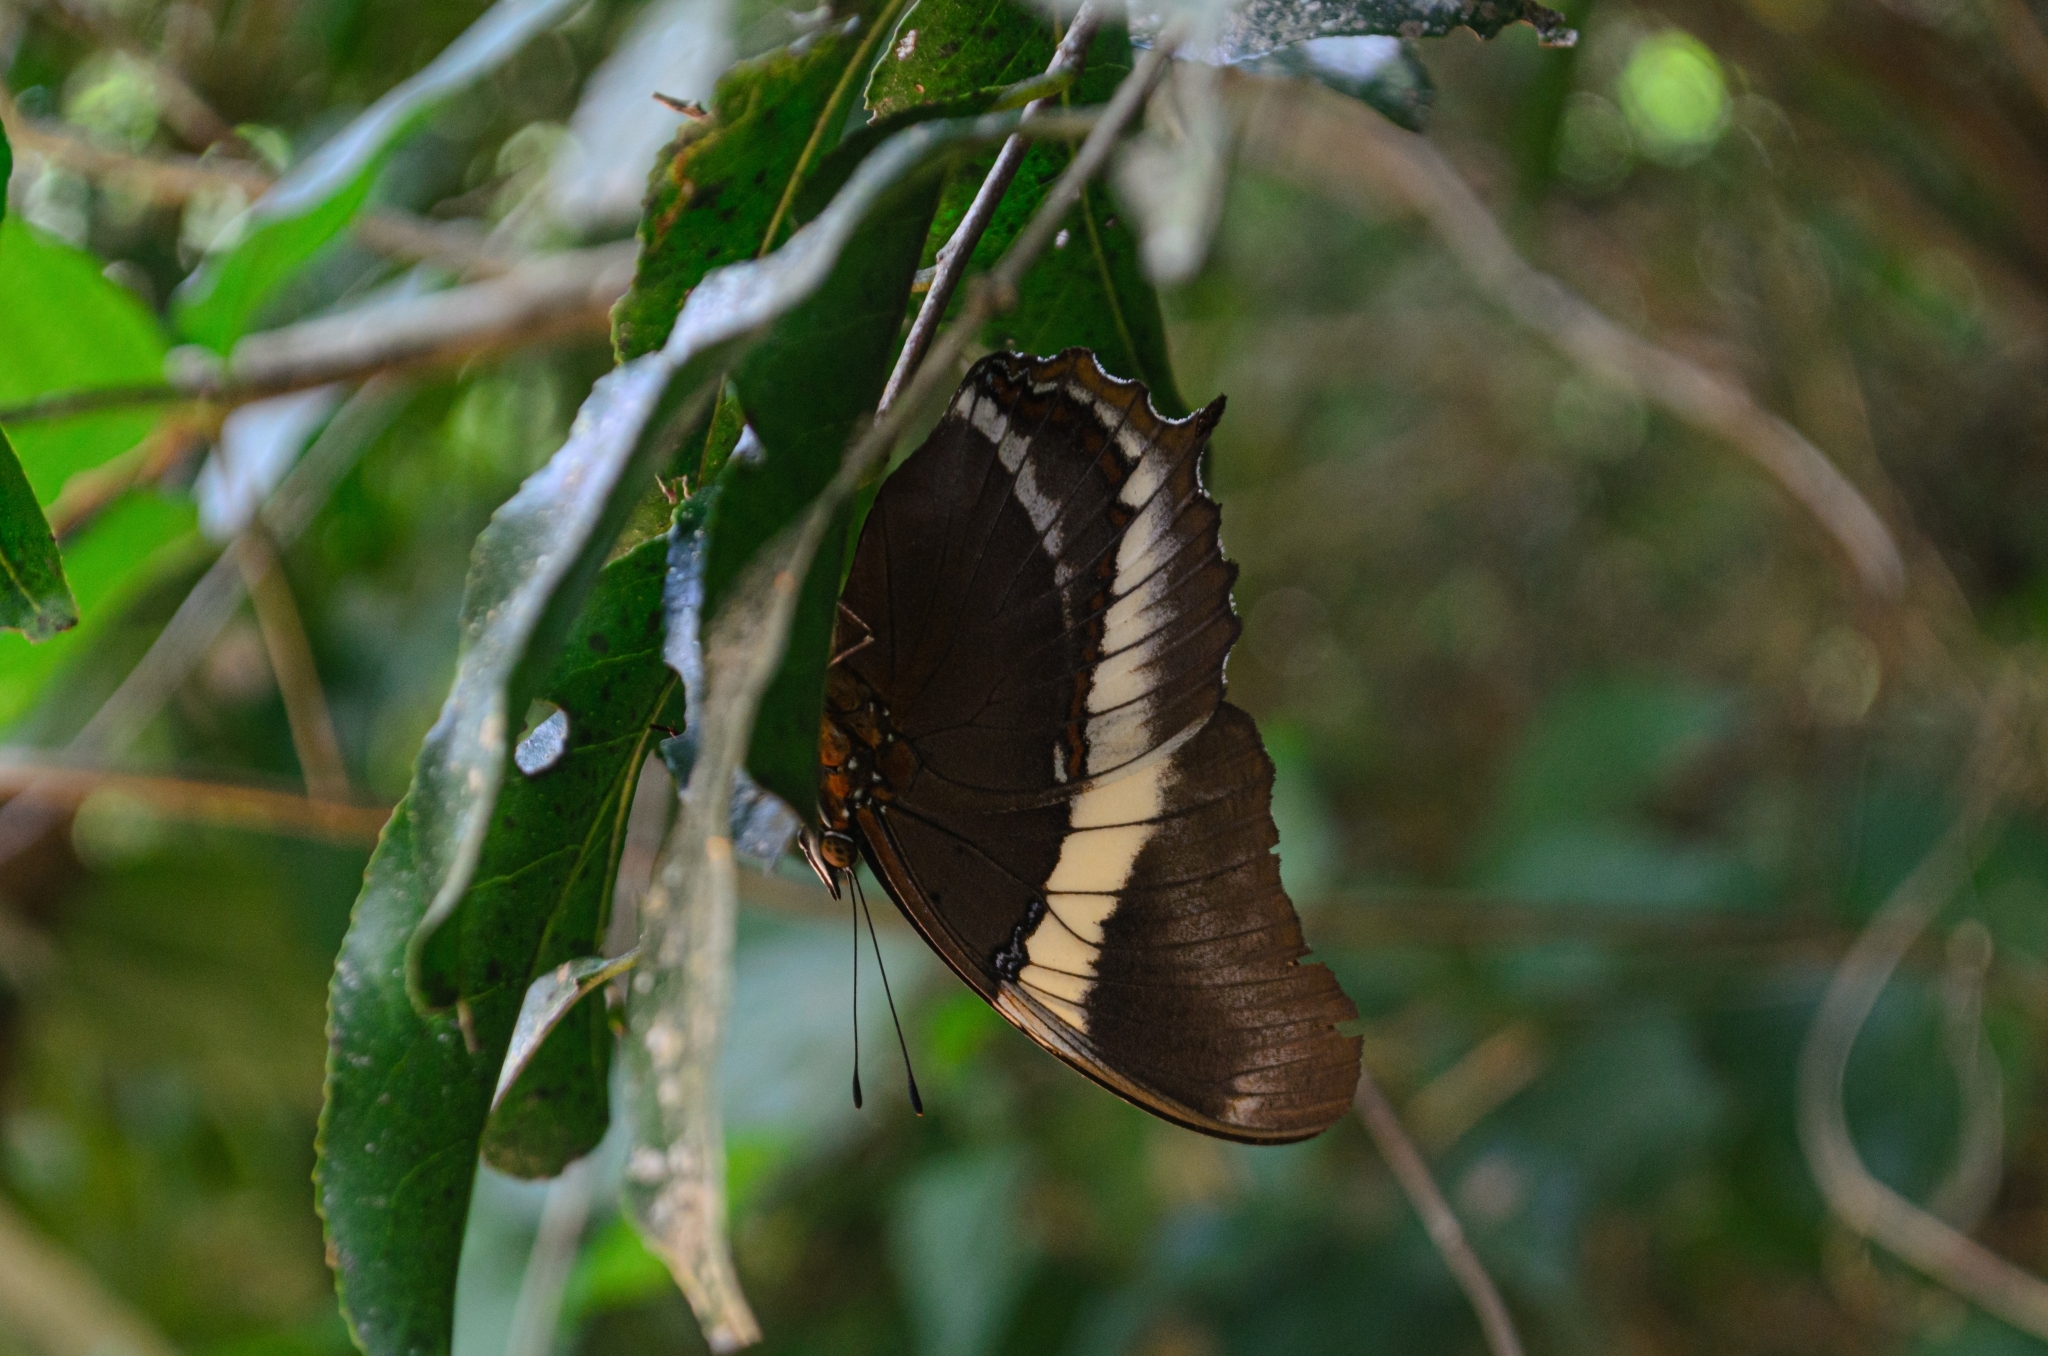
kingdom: Animalia
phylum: Arthropoda
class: Insecta
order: Lepidoptera
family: Nymphalidae
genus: Siproeta
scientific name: Siproeta epaphus
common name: Rusty-tipped page
